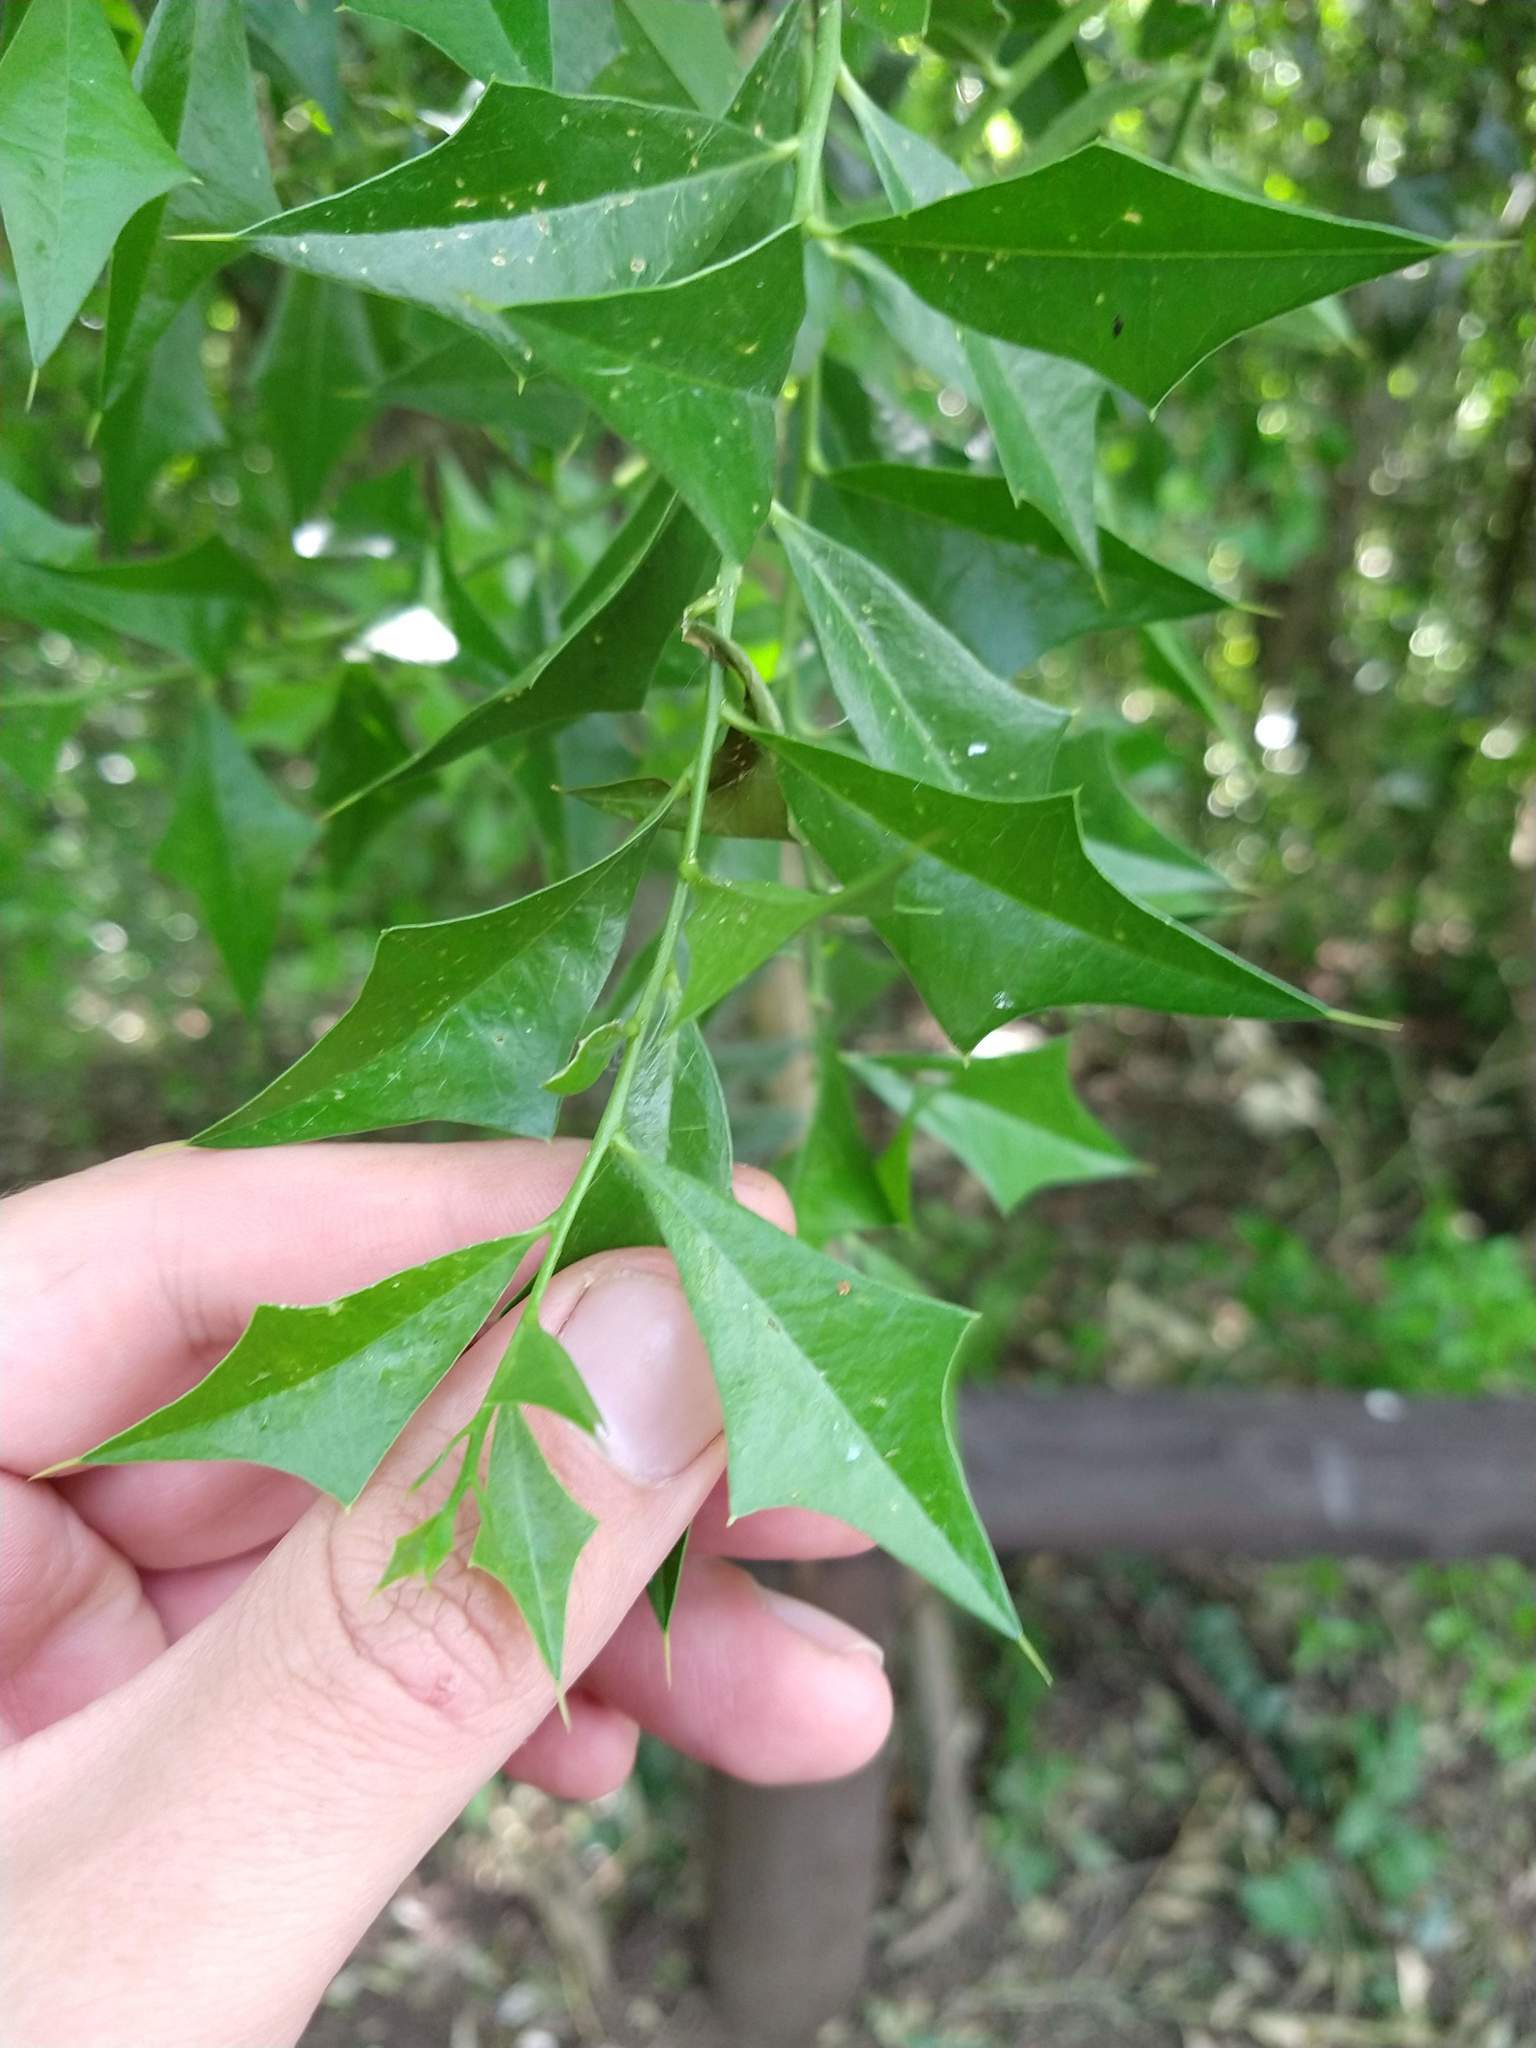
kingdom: Plantae
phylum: Tracheophyta
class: Magnoliopsida
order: Santalales
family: Cervantesiaceae
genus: Jodina
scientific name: Jodina rhombifolia
